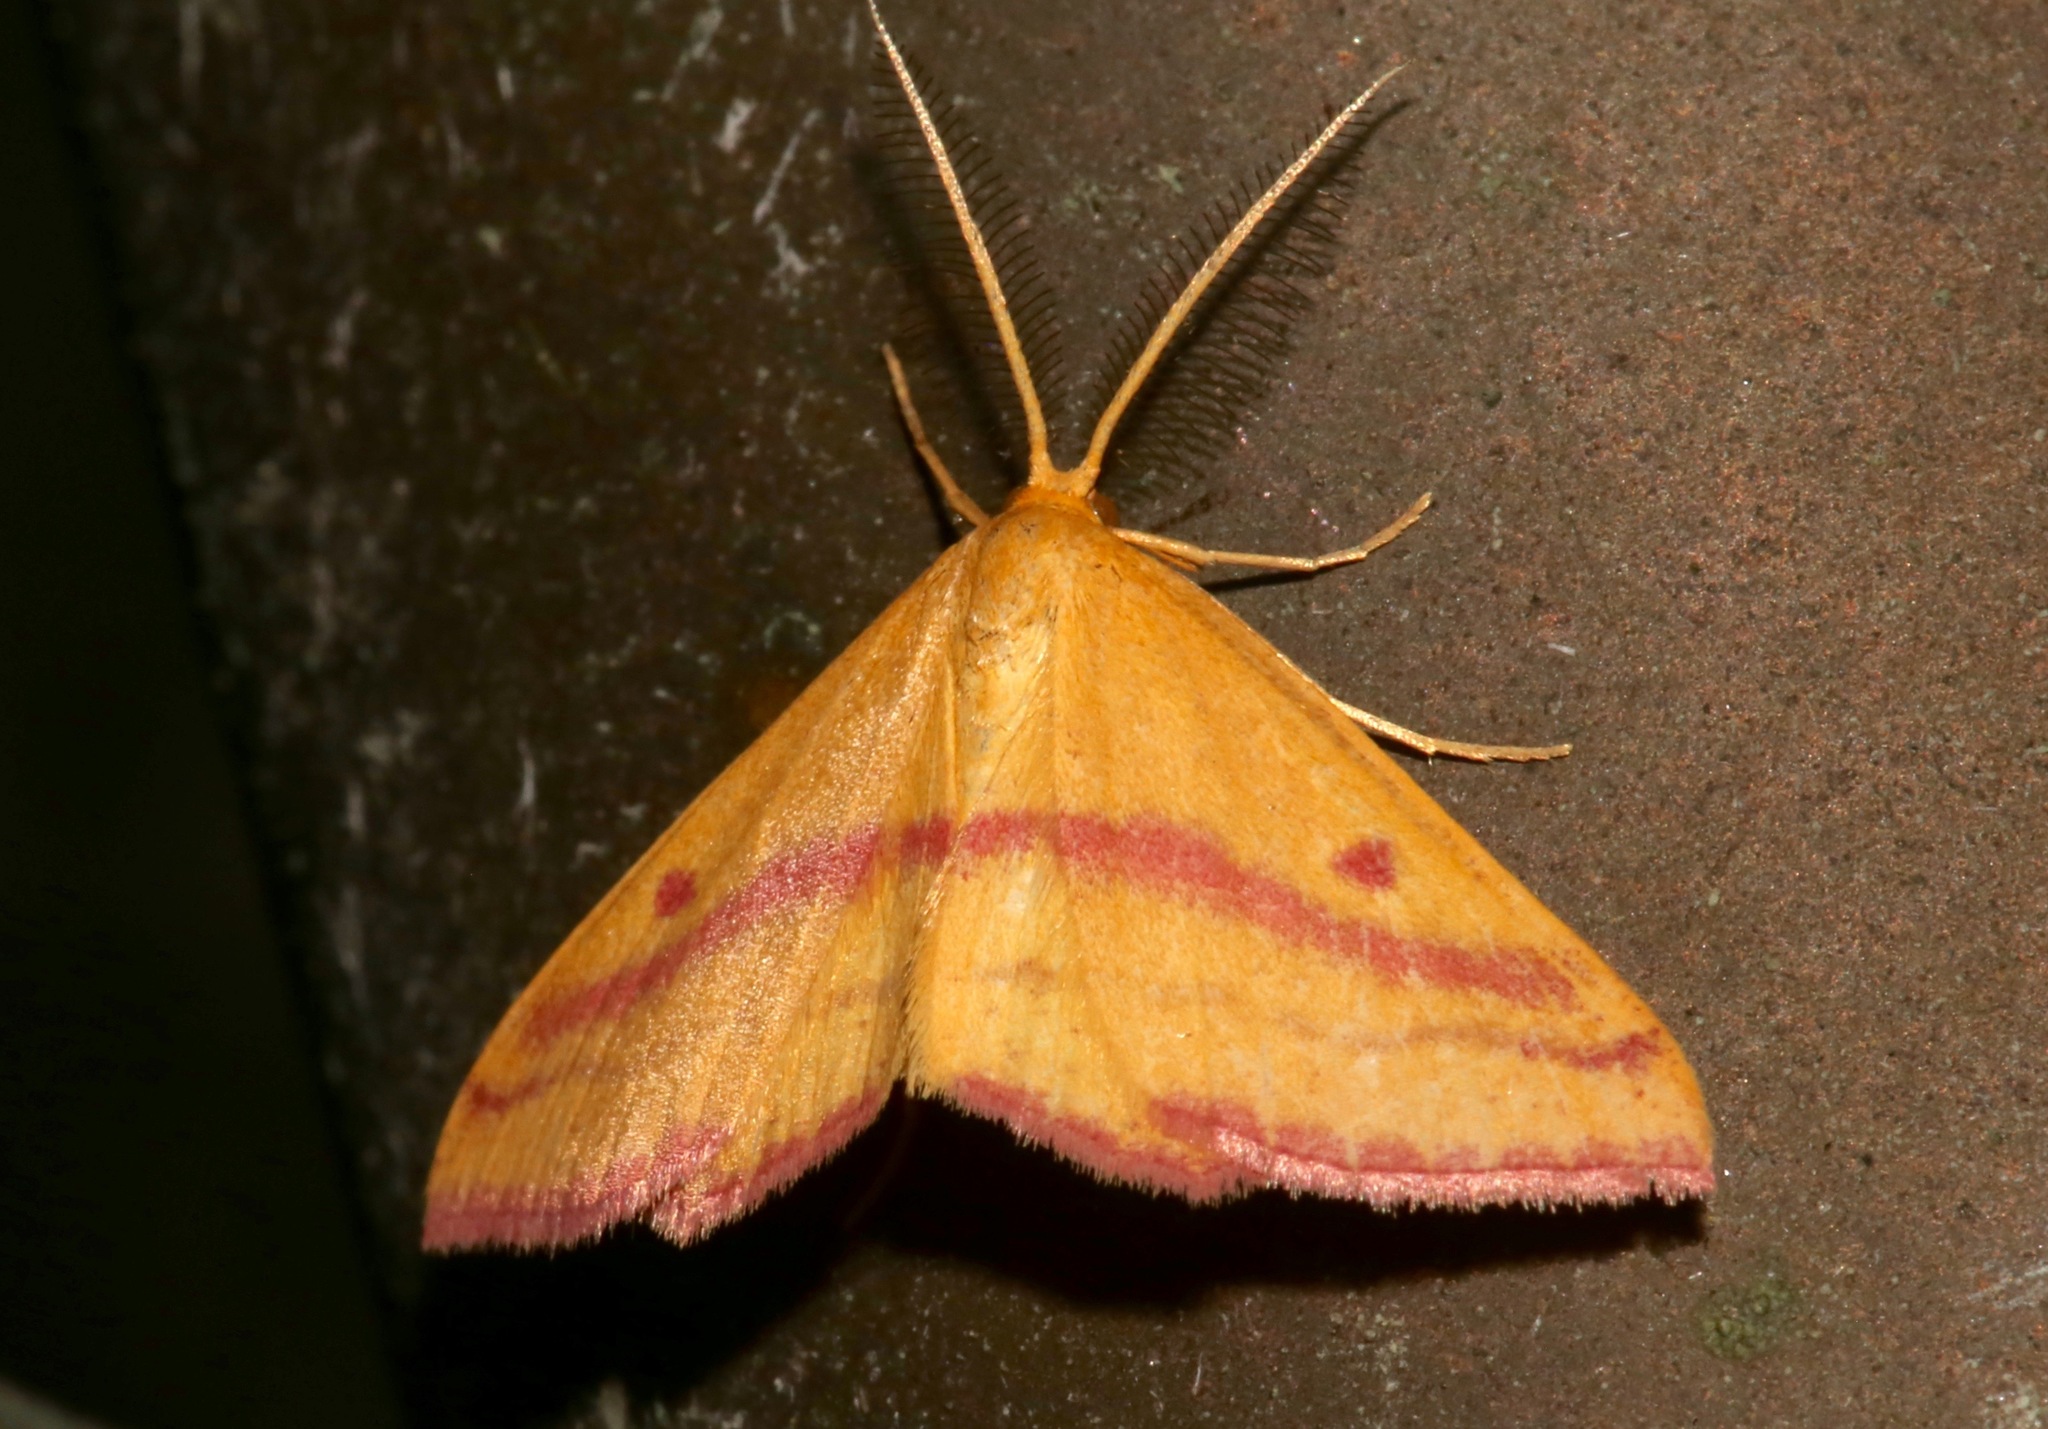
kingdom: Animalia
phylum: Arthropoda
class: Insecta
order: Lepidoptera
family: Geometridae
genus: Haematopis
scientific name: Haematopis grataria
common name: Chickweed geometer
